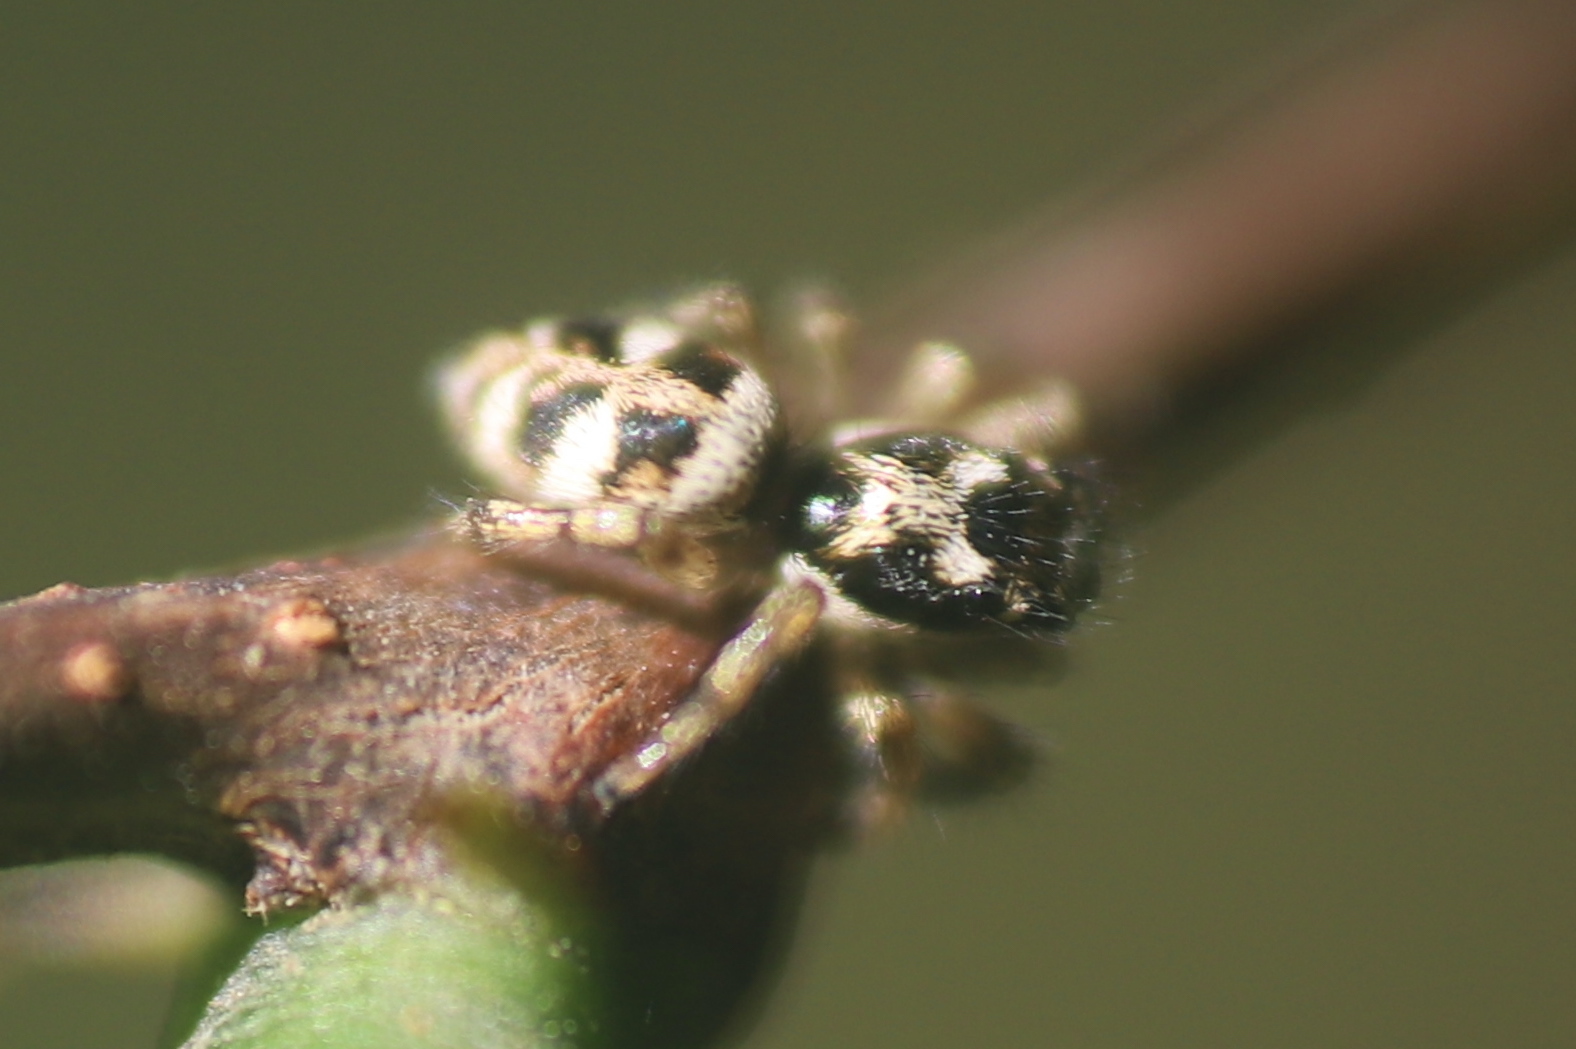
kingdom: Animalia
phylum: Arthropoda
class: Arachnida
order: Araneae
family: Salticidae
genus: Salticus
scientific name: Salticus scenicus
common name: Zebra jumper
